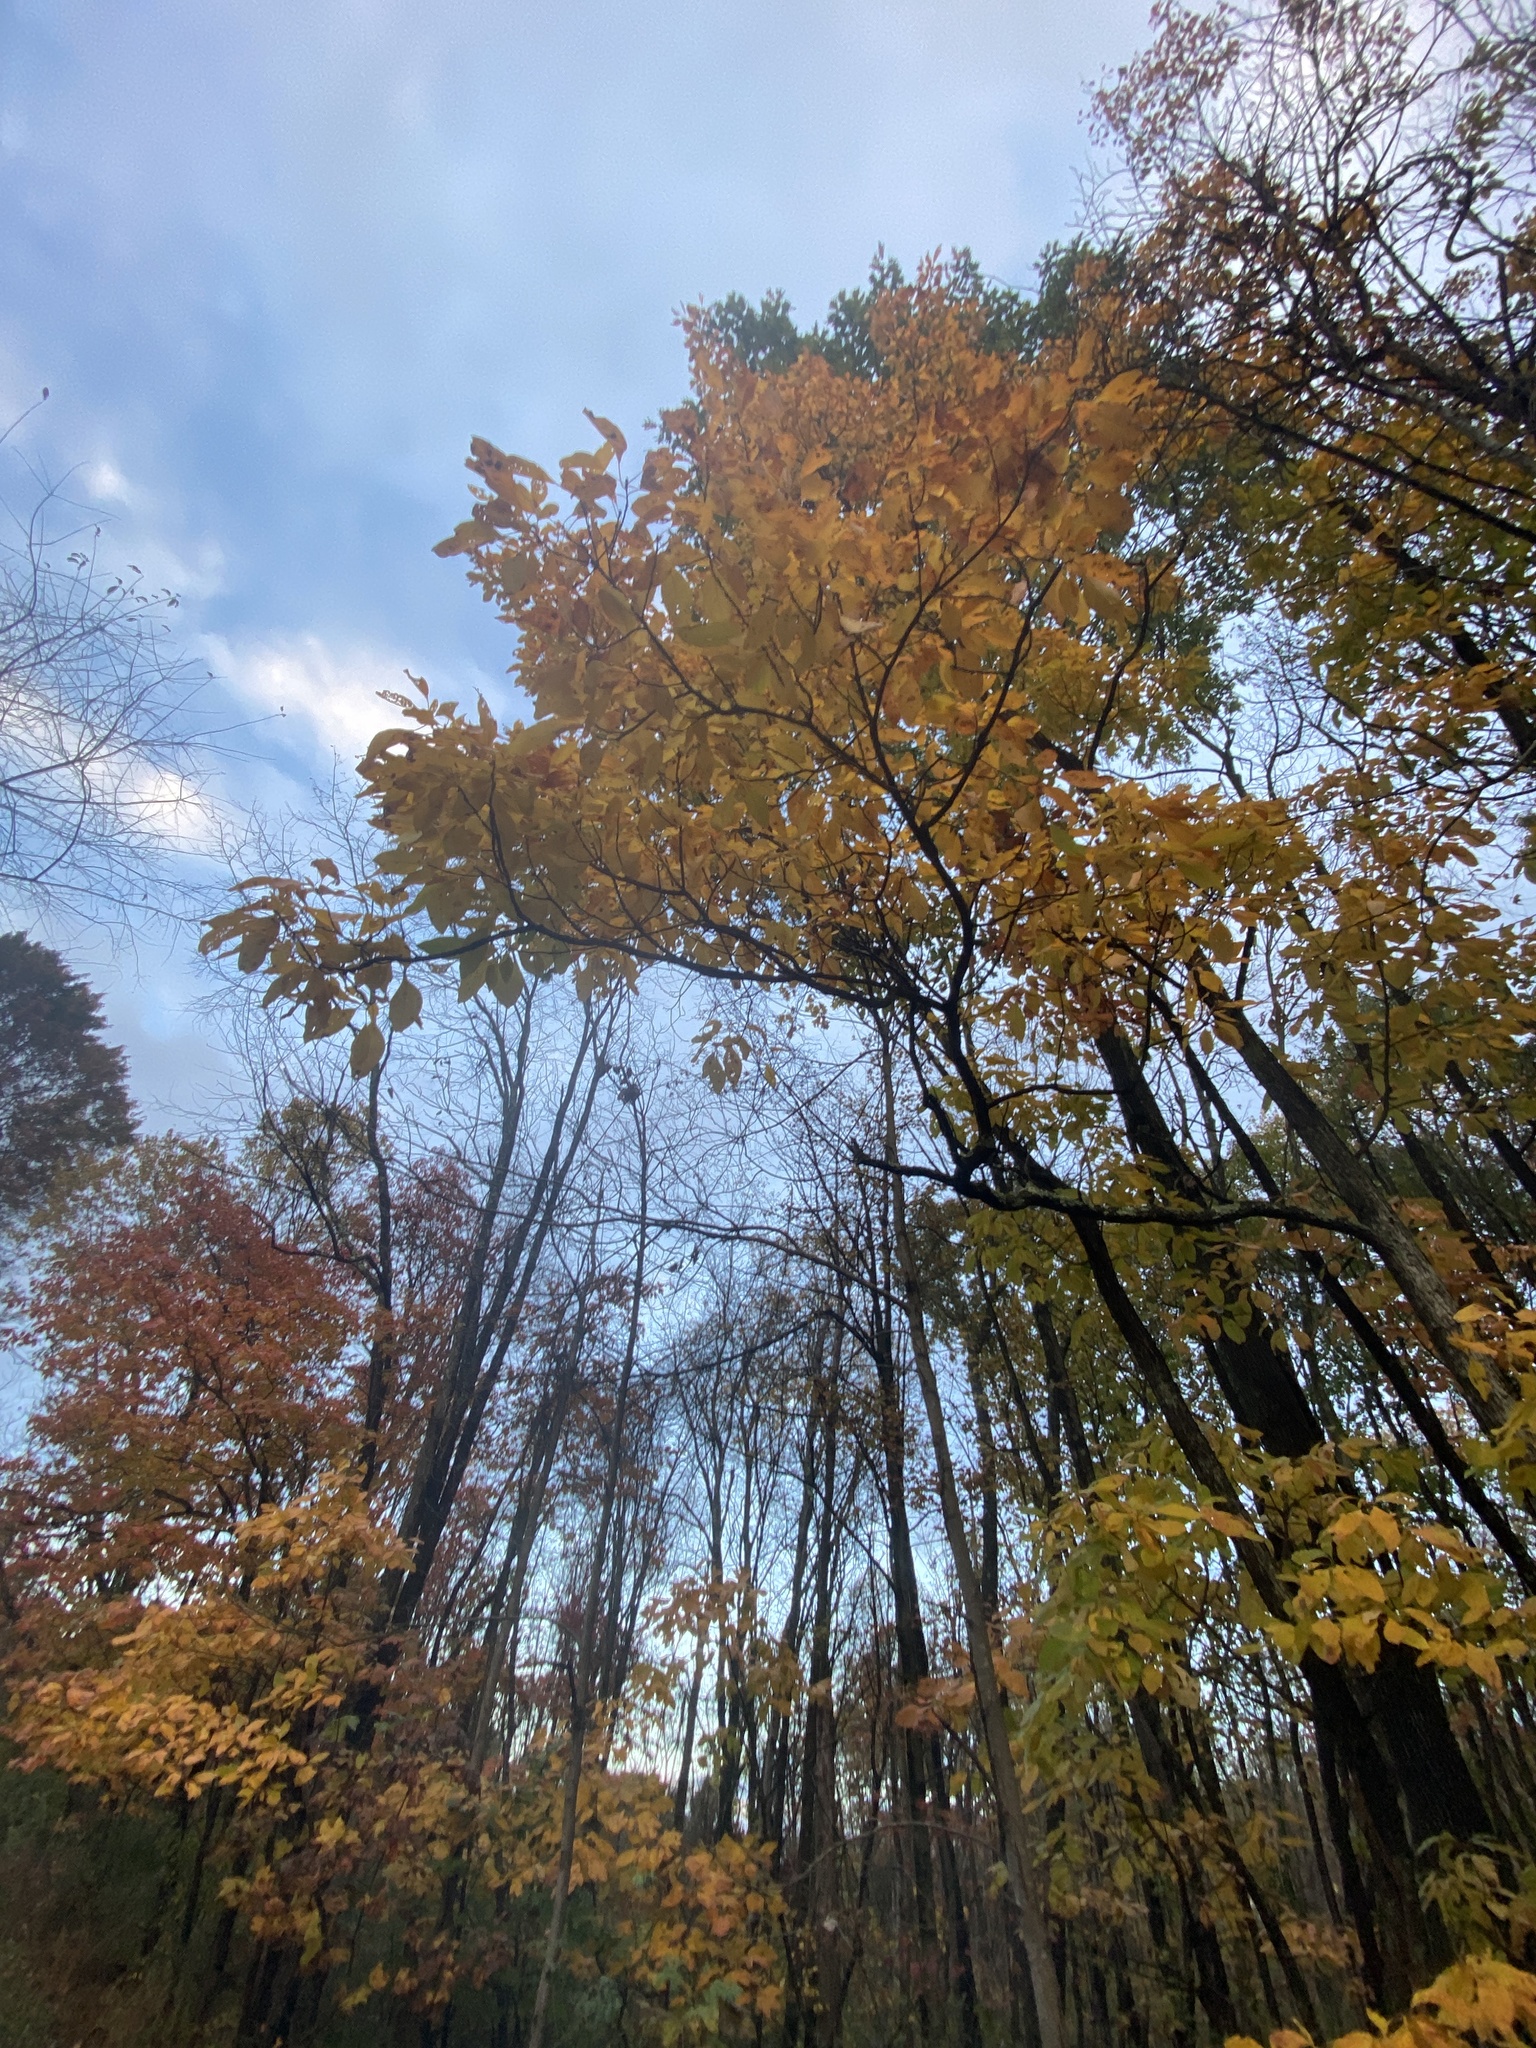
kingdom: Plantae
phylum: Tracheophyta
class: Magnoliopsida
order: Laurales
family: Lauraceae
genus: Sassafras
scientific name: Sassafras albidum
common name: Sassafras
